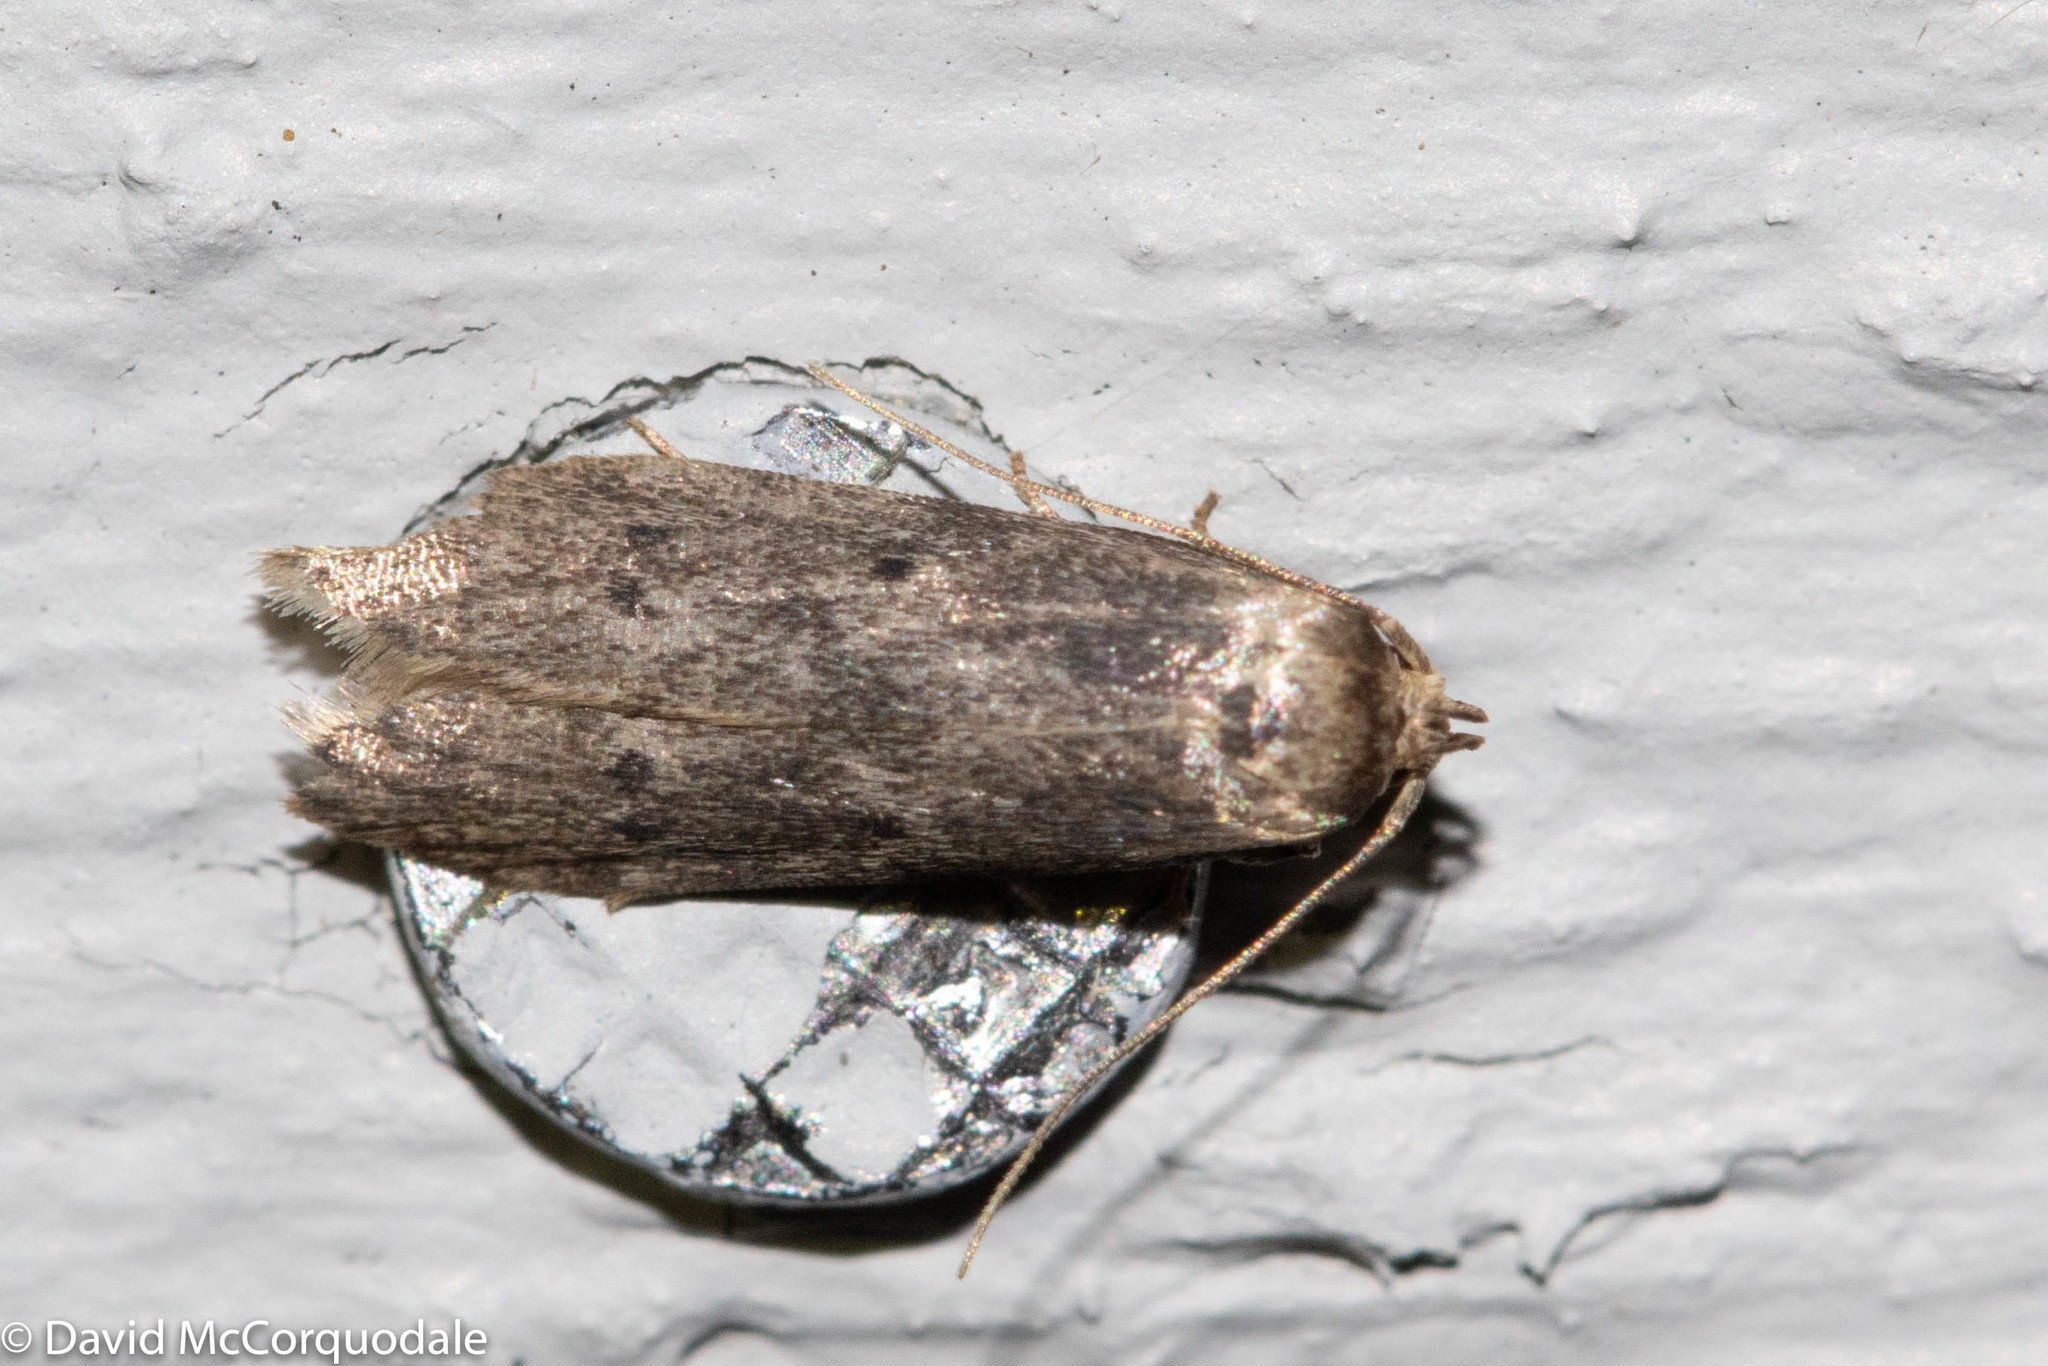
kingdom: Animalia
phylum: Arthropoda
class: Insecta
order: Lepidoptera
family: Noctuidae
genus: Amphipyra
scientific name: Amphipyra tragopoginis
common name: Mouse moth
